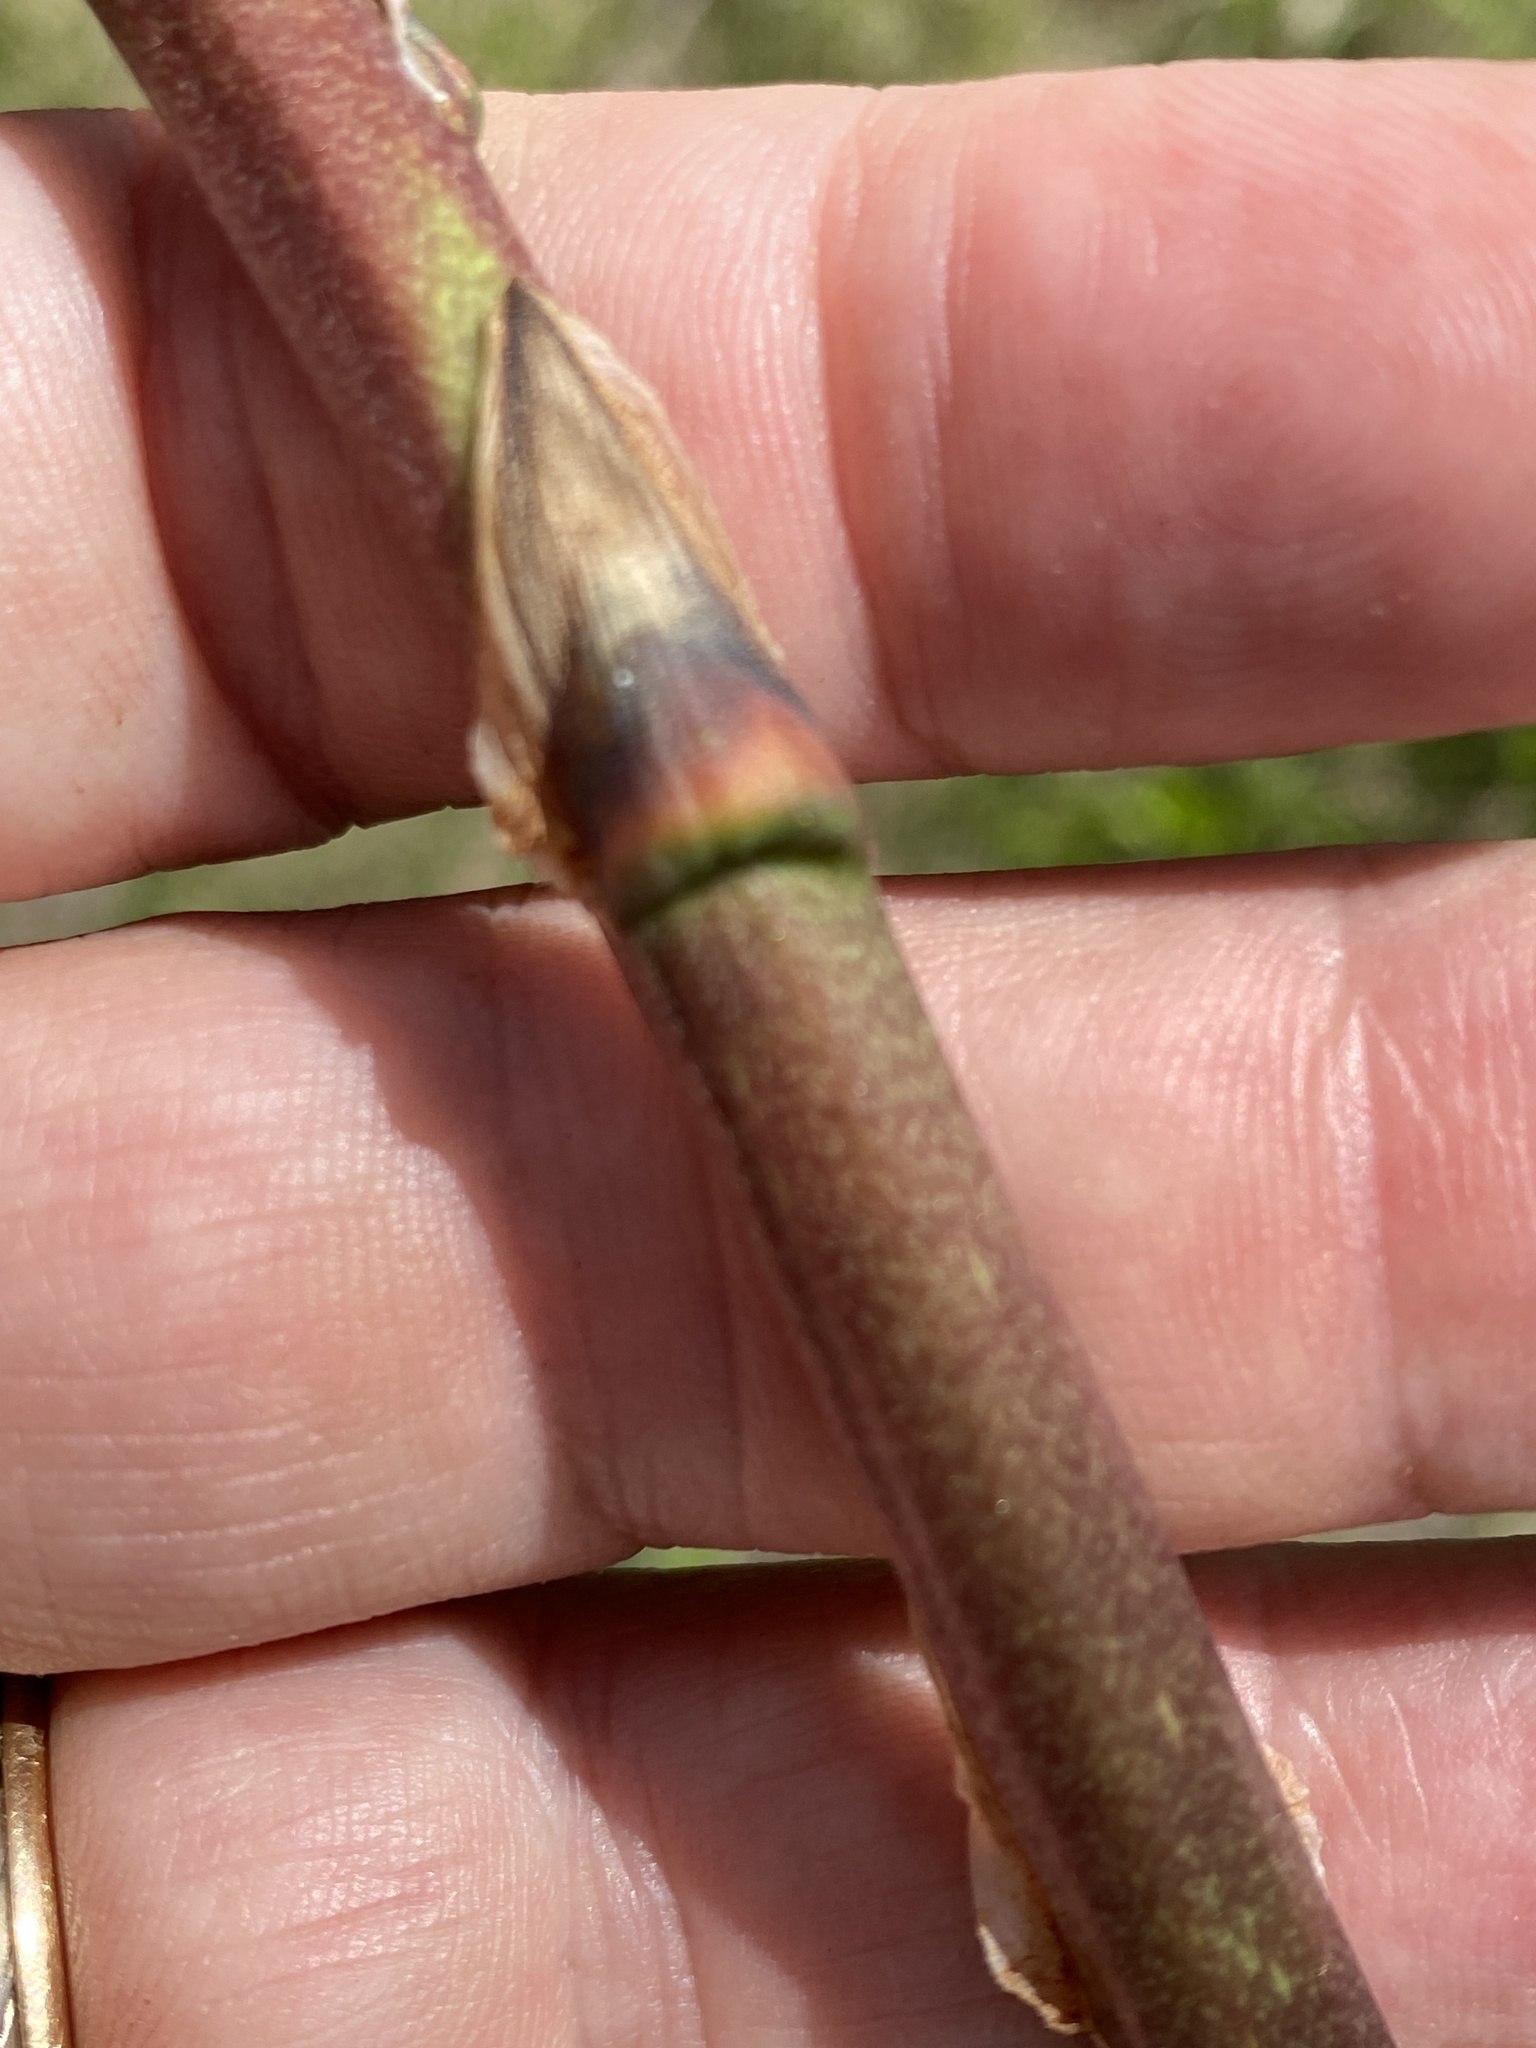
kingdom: Plantae
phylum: Tracheophyta
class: Liliopsida
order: Asparagales
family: Asparagaceae
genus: Yucca
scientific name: Yucca filamentosa
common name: Adam's-needle
